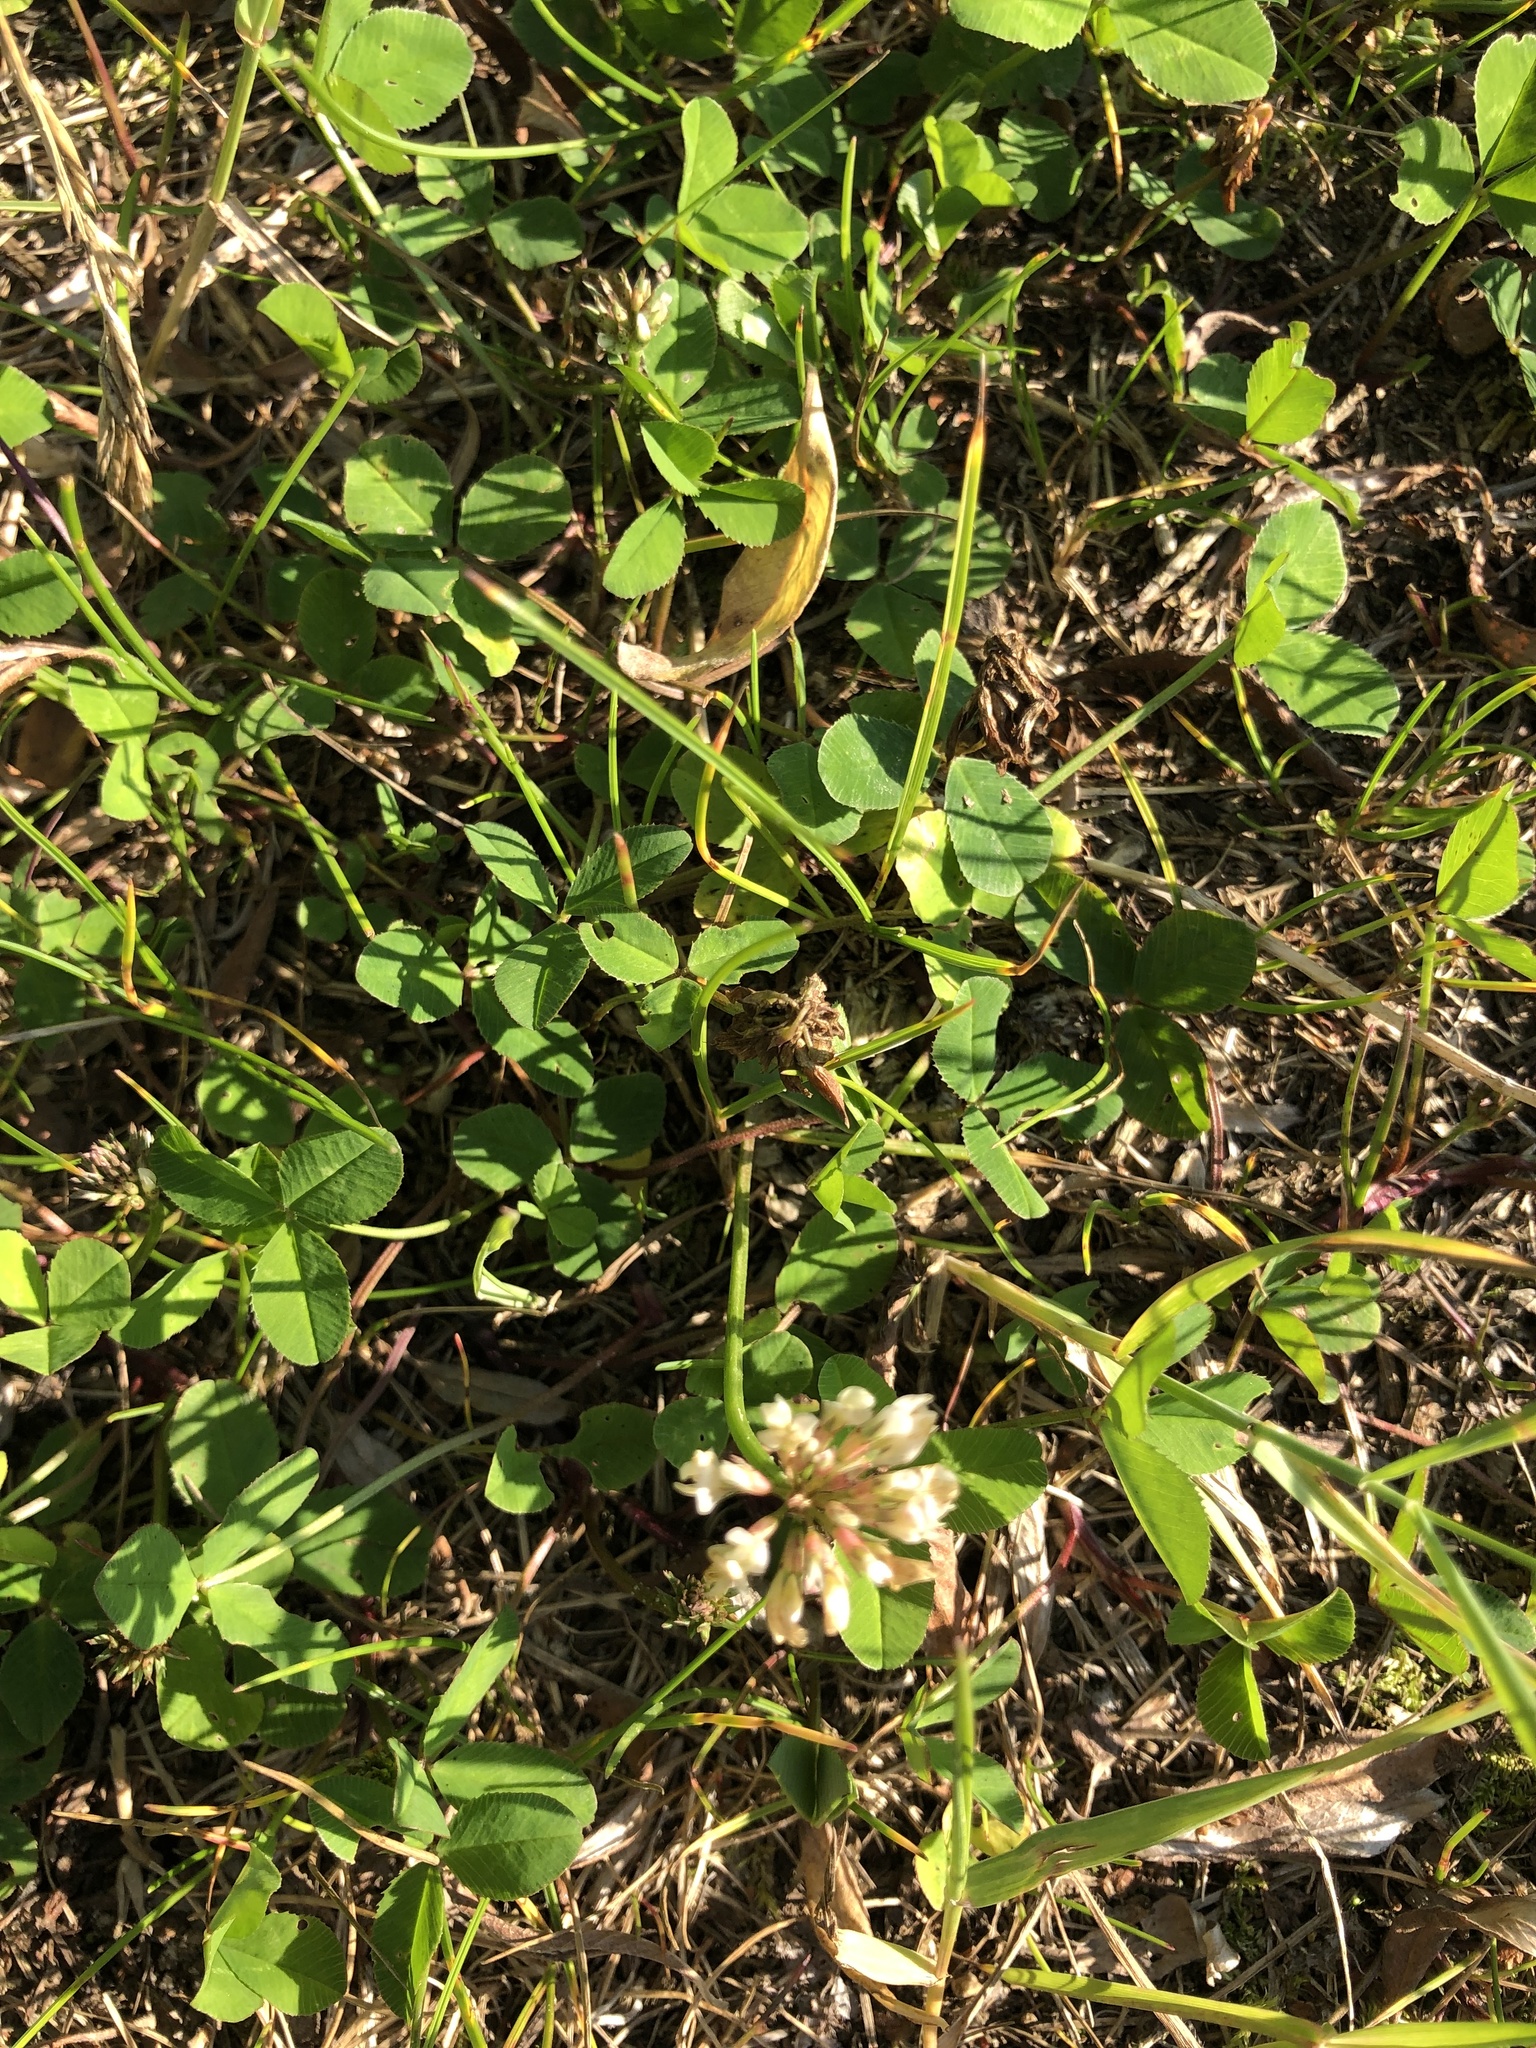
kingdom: Plantae
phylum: Tracheophyta
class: Magnoliopsida
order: Fabales
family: Fabaceae
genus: Trifolium
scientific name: Trifolium repens
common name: White clover
